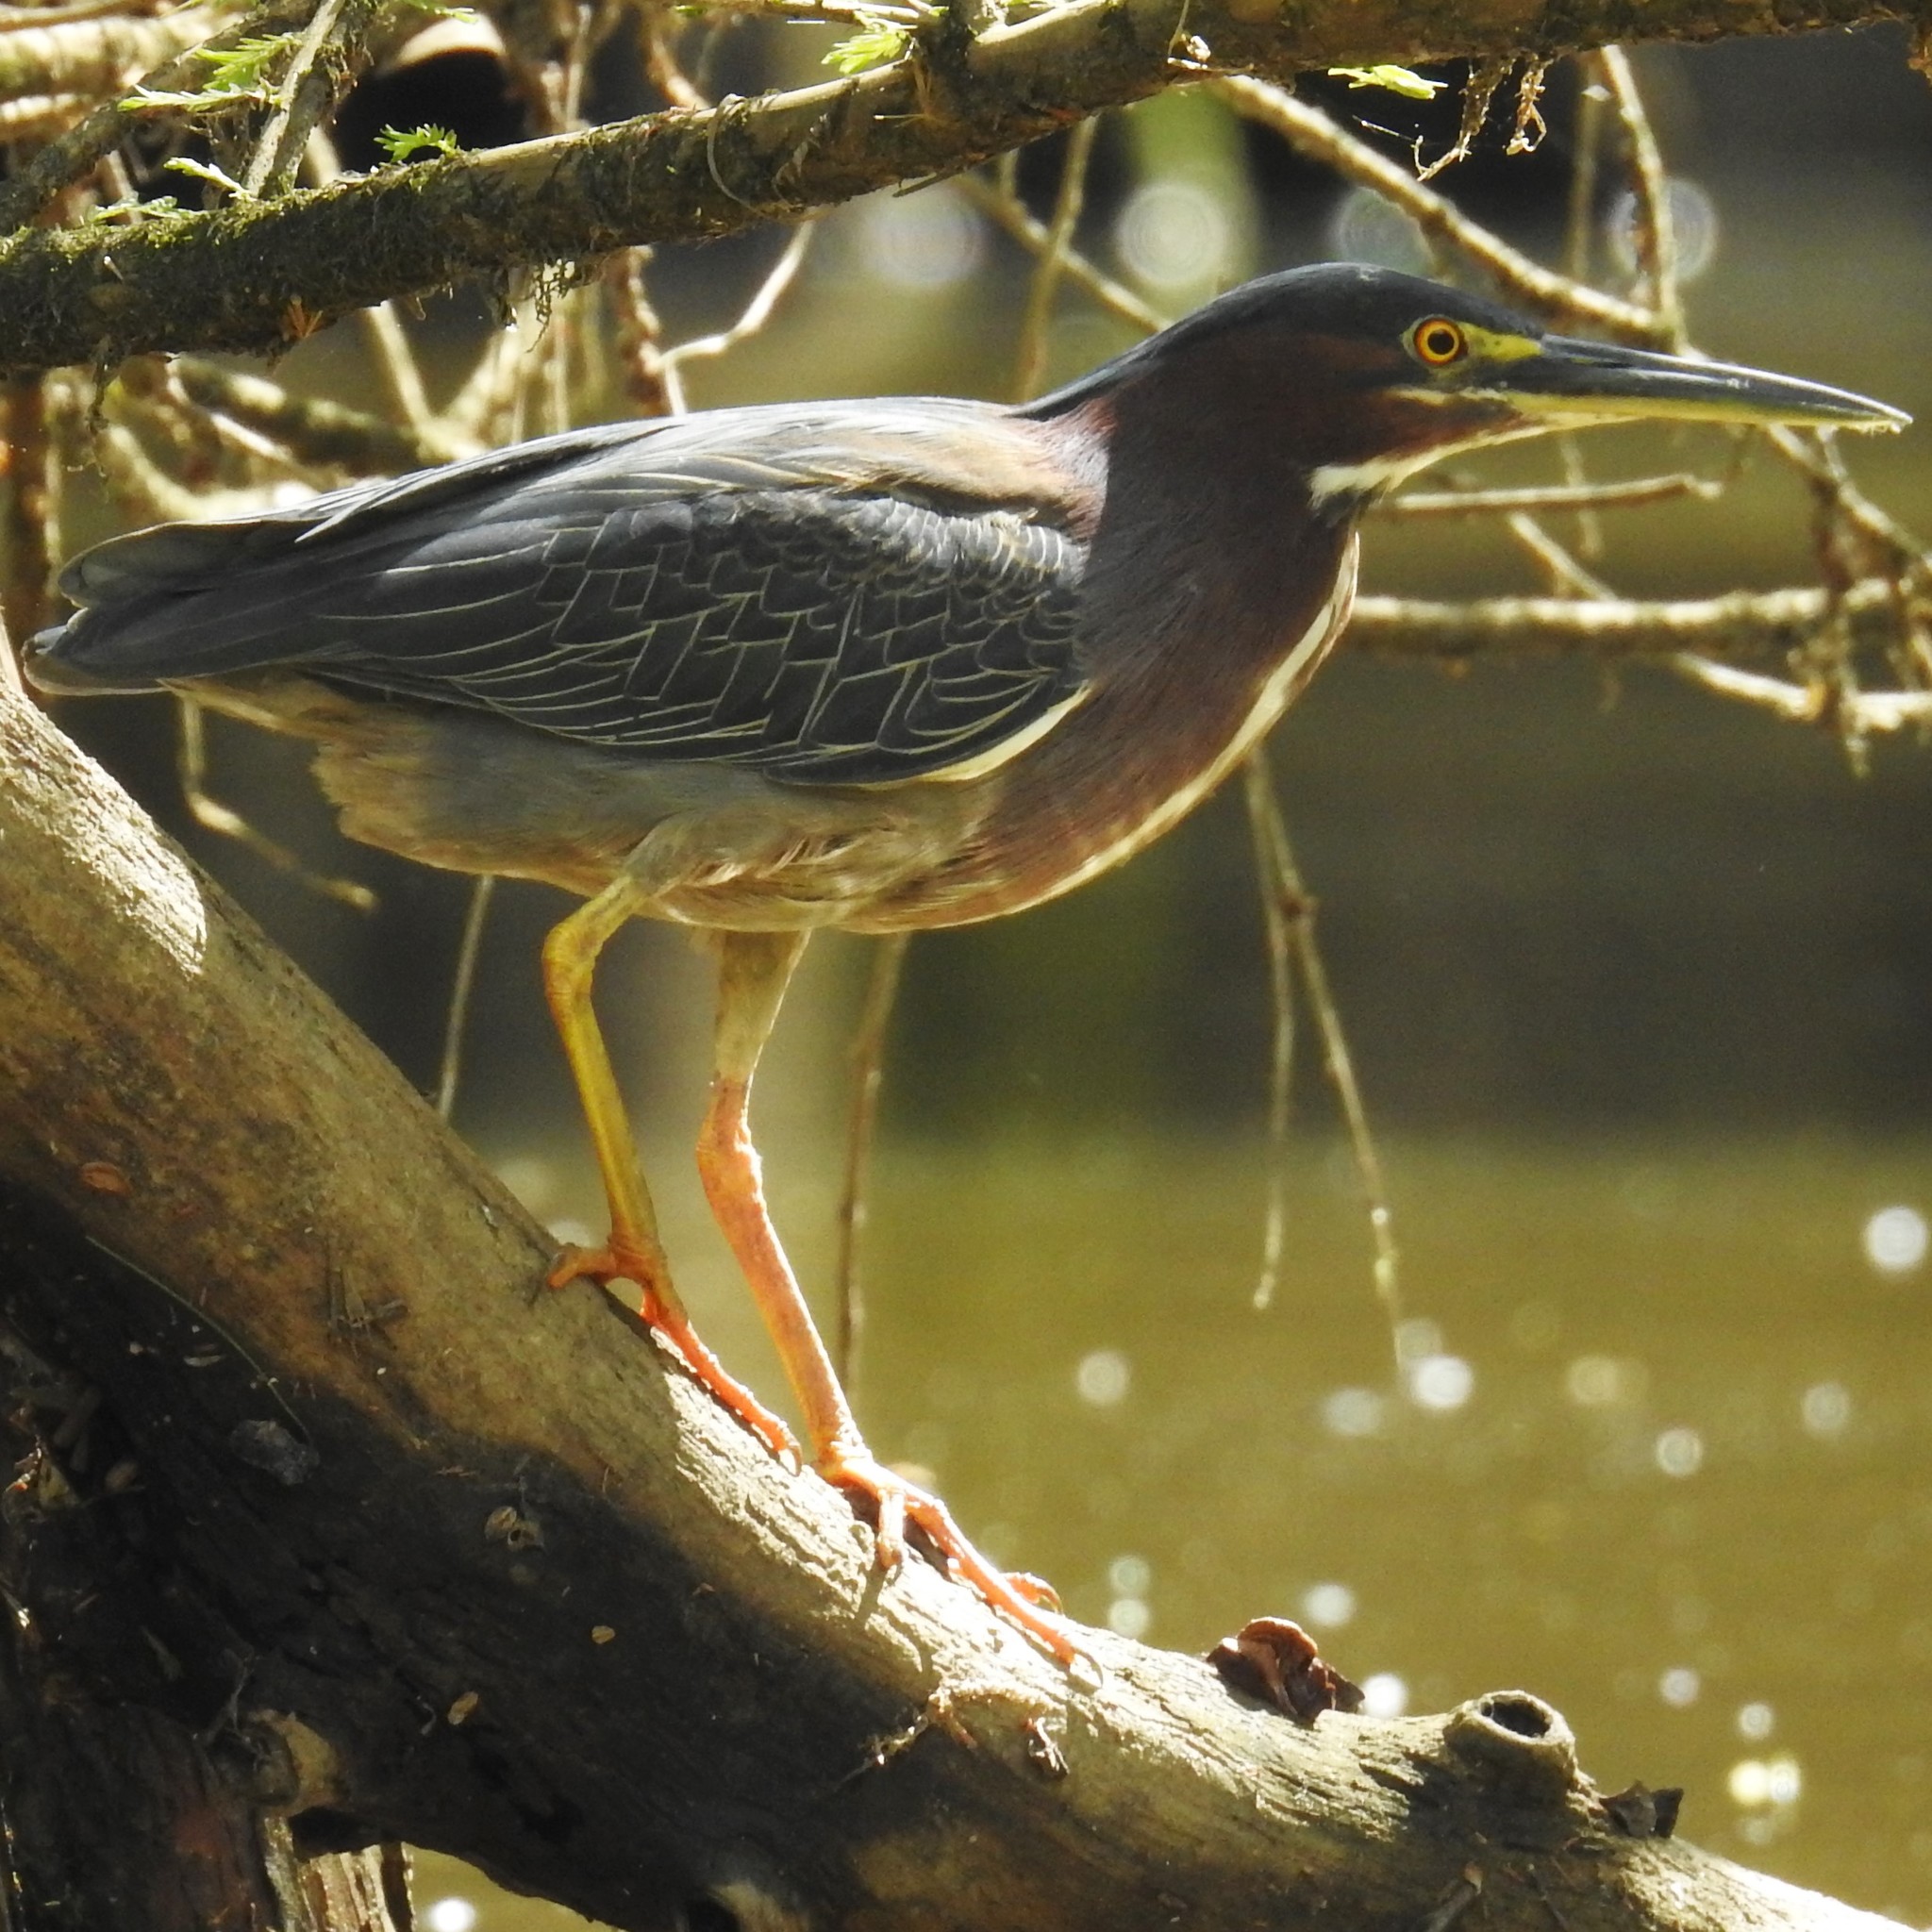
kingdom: Animalia
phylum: Chordata
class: Aves
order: Pelecaniformes
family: Ardeidae
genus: Butorides
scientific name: Butorides virescens
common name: Green heron
